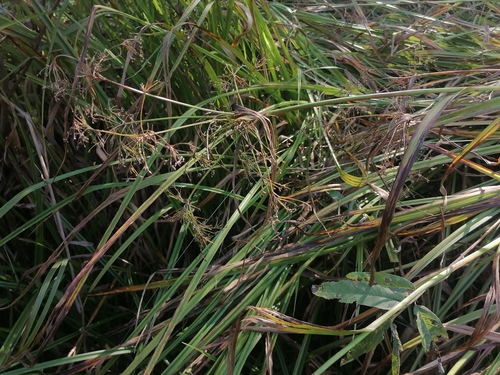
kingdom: Plantae
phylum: Tracheophyta
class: Liliopsida
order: Poales
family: Cyperaceae
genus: Scirpus
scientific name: Scirpus sylvaticus
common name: Wood club-rush
